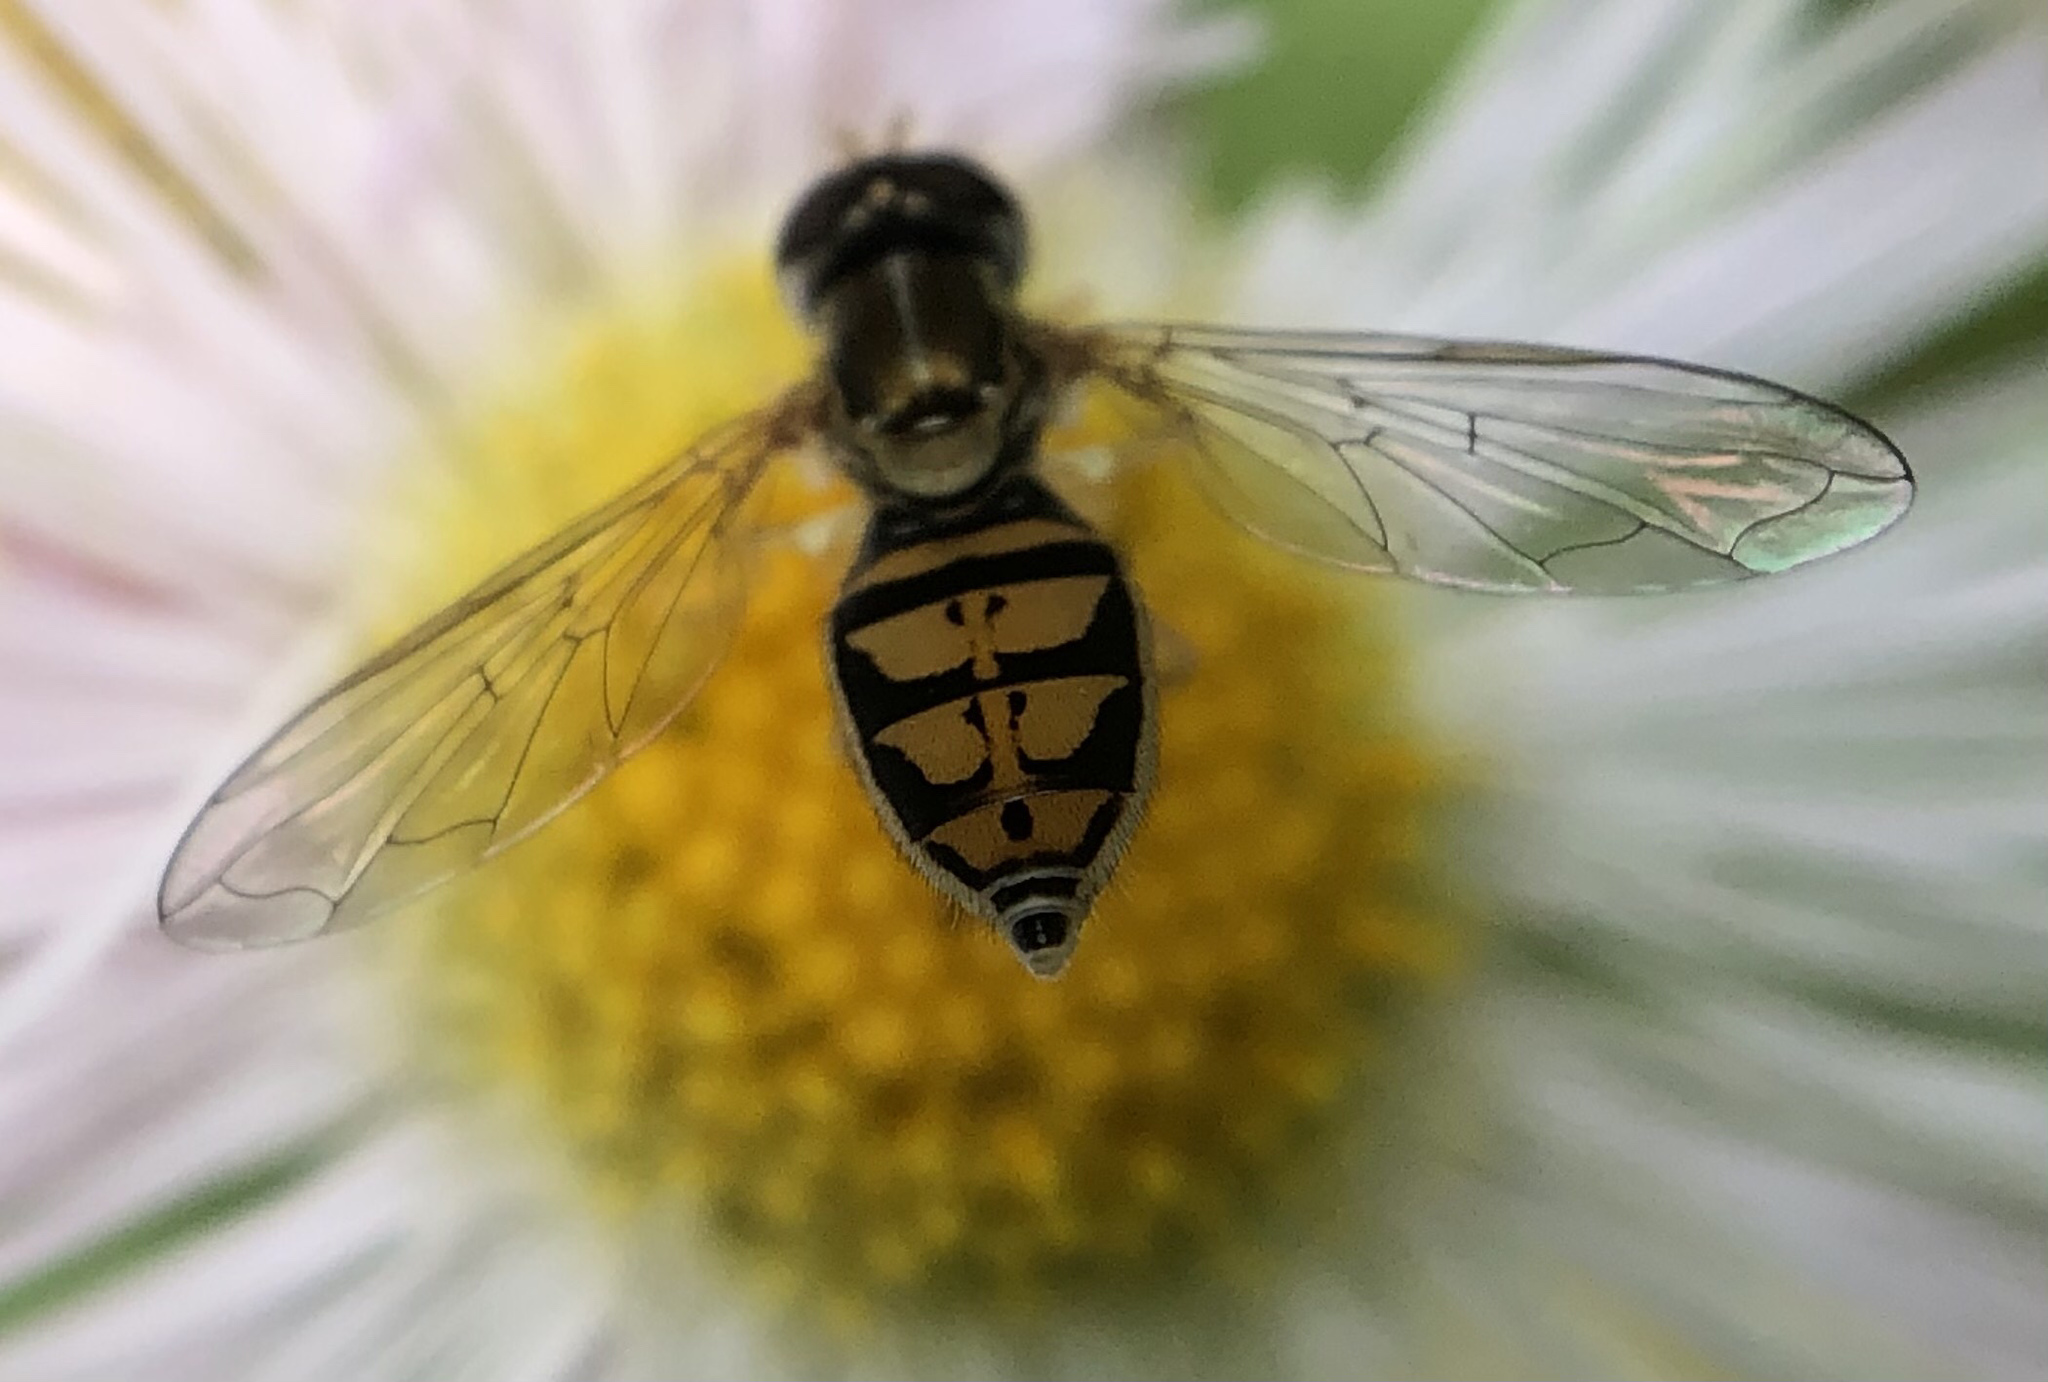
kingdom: Animalia
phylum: Arthropoda
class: Insecta
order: Diptera
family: Syrphidae
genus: Toxomerus
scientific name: Toxomerus marginatus
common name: Syrphid fly
